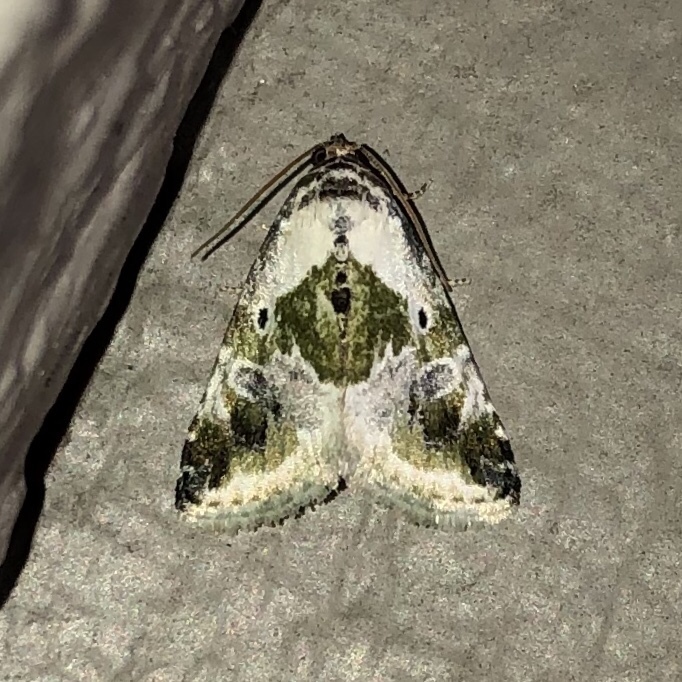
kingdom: Animalia
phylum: Arthropoda
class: Insecta
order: Lepidoptera
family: Noctuidae
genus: Maliattha
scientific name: Maliattha synochitis
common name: Black-dotted glyph
